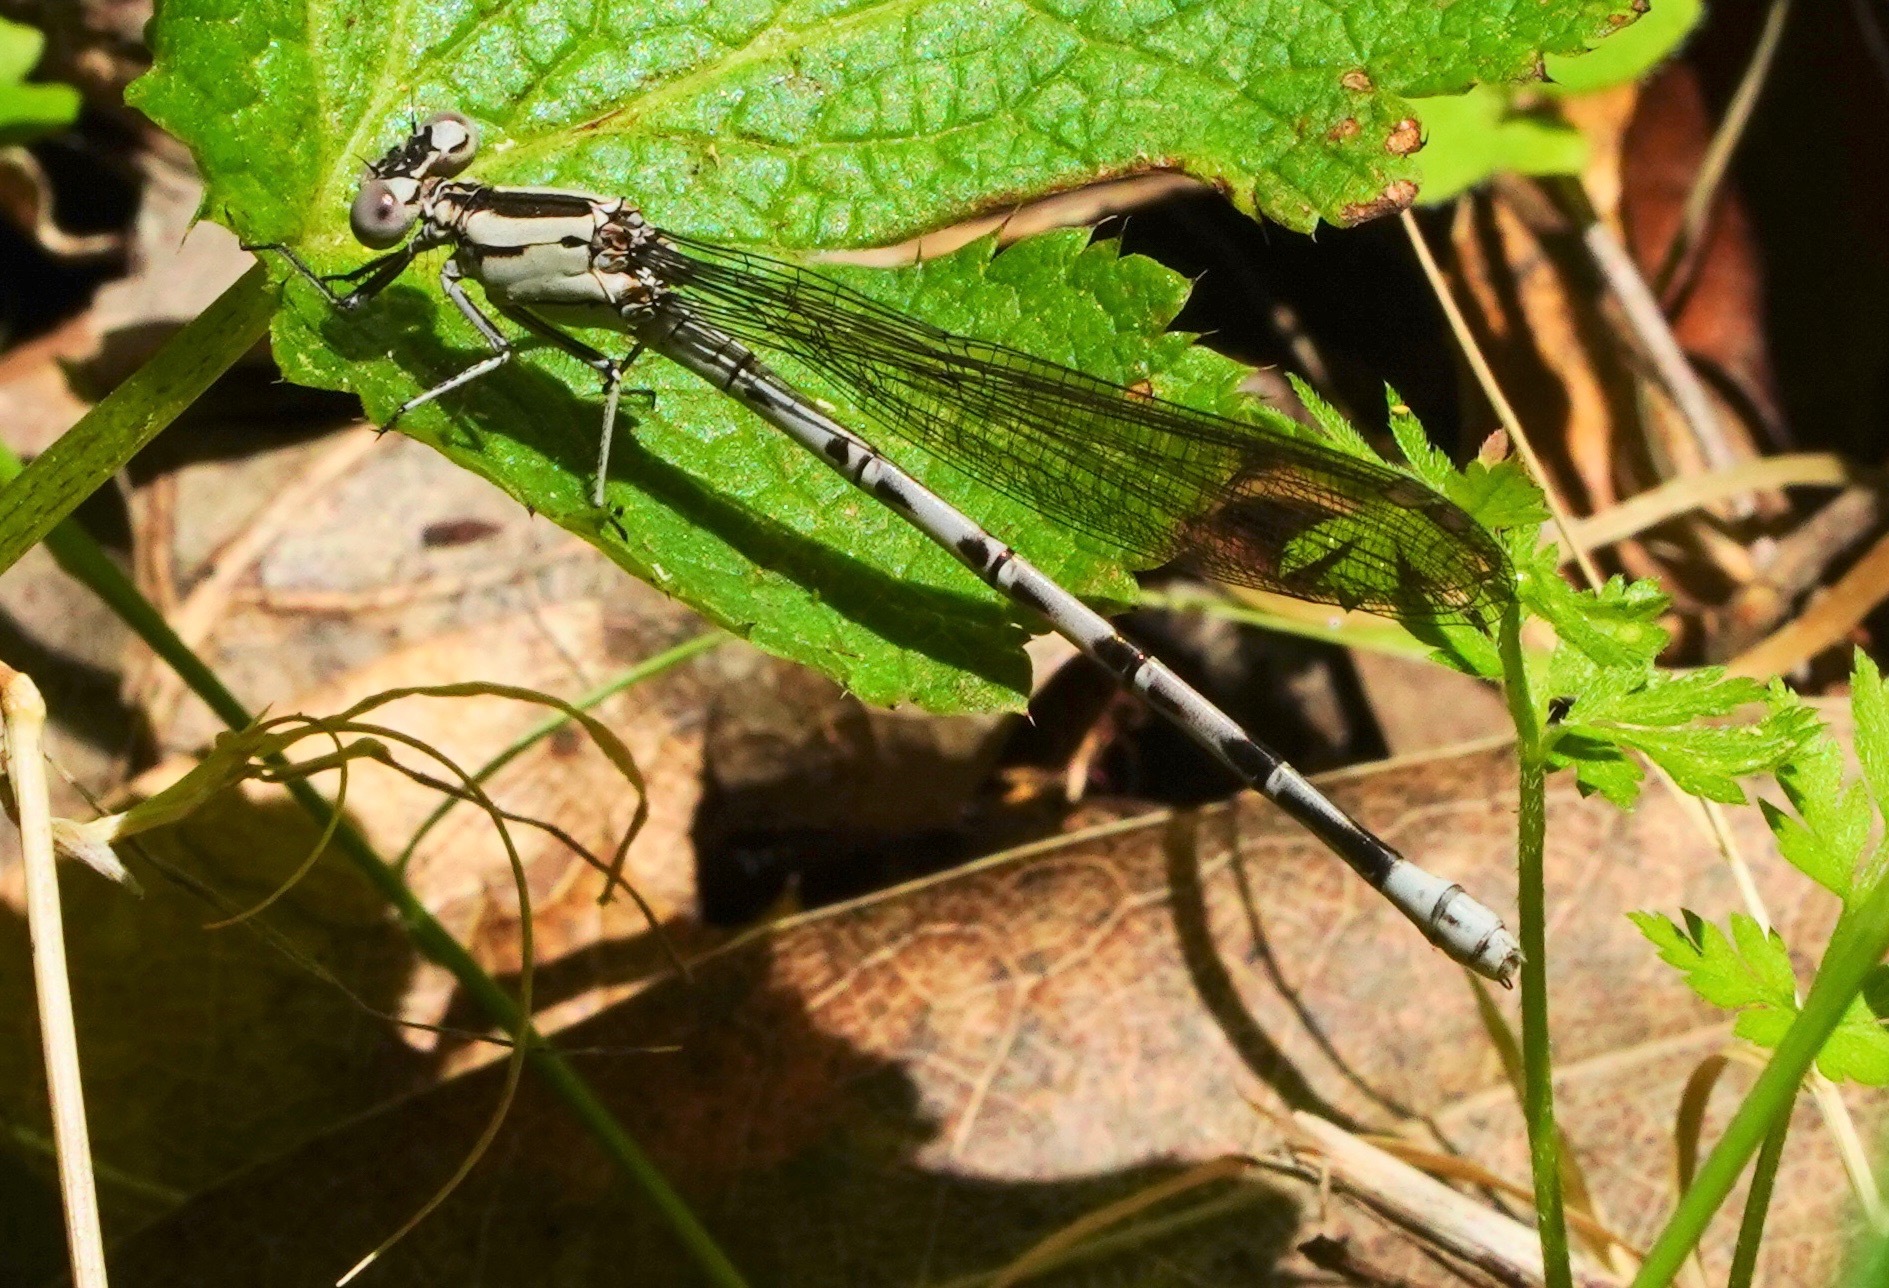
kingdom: Animalia
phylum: Arthropoda
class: Insecta
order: Odonata
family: Coenagrionidae
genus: Argia
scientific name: Argia vivida
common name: Vivid dancer
